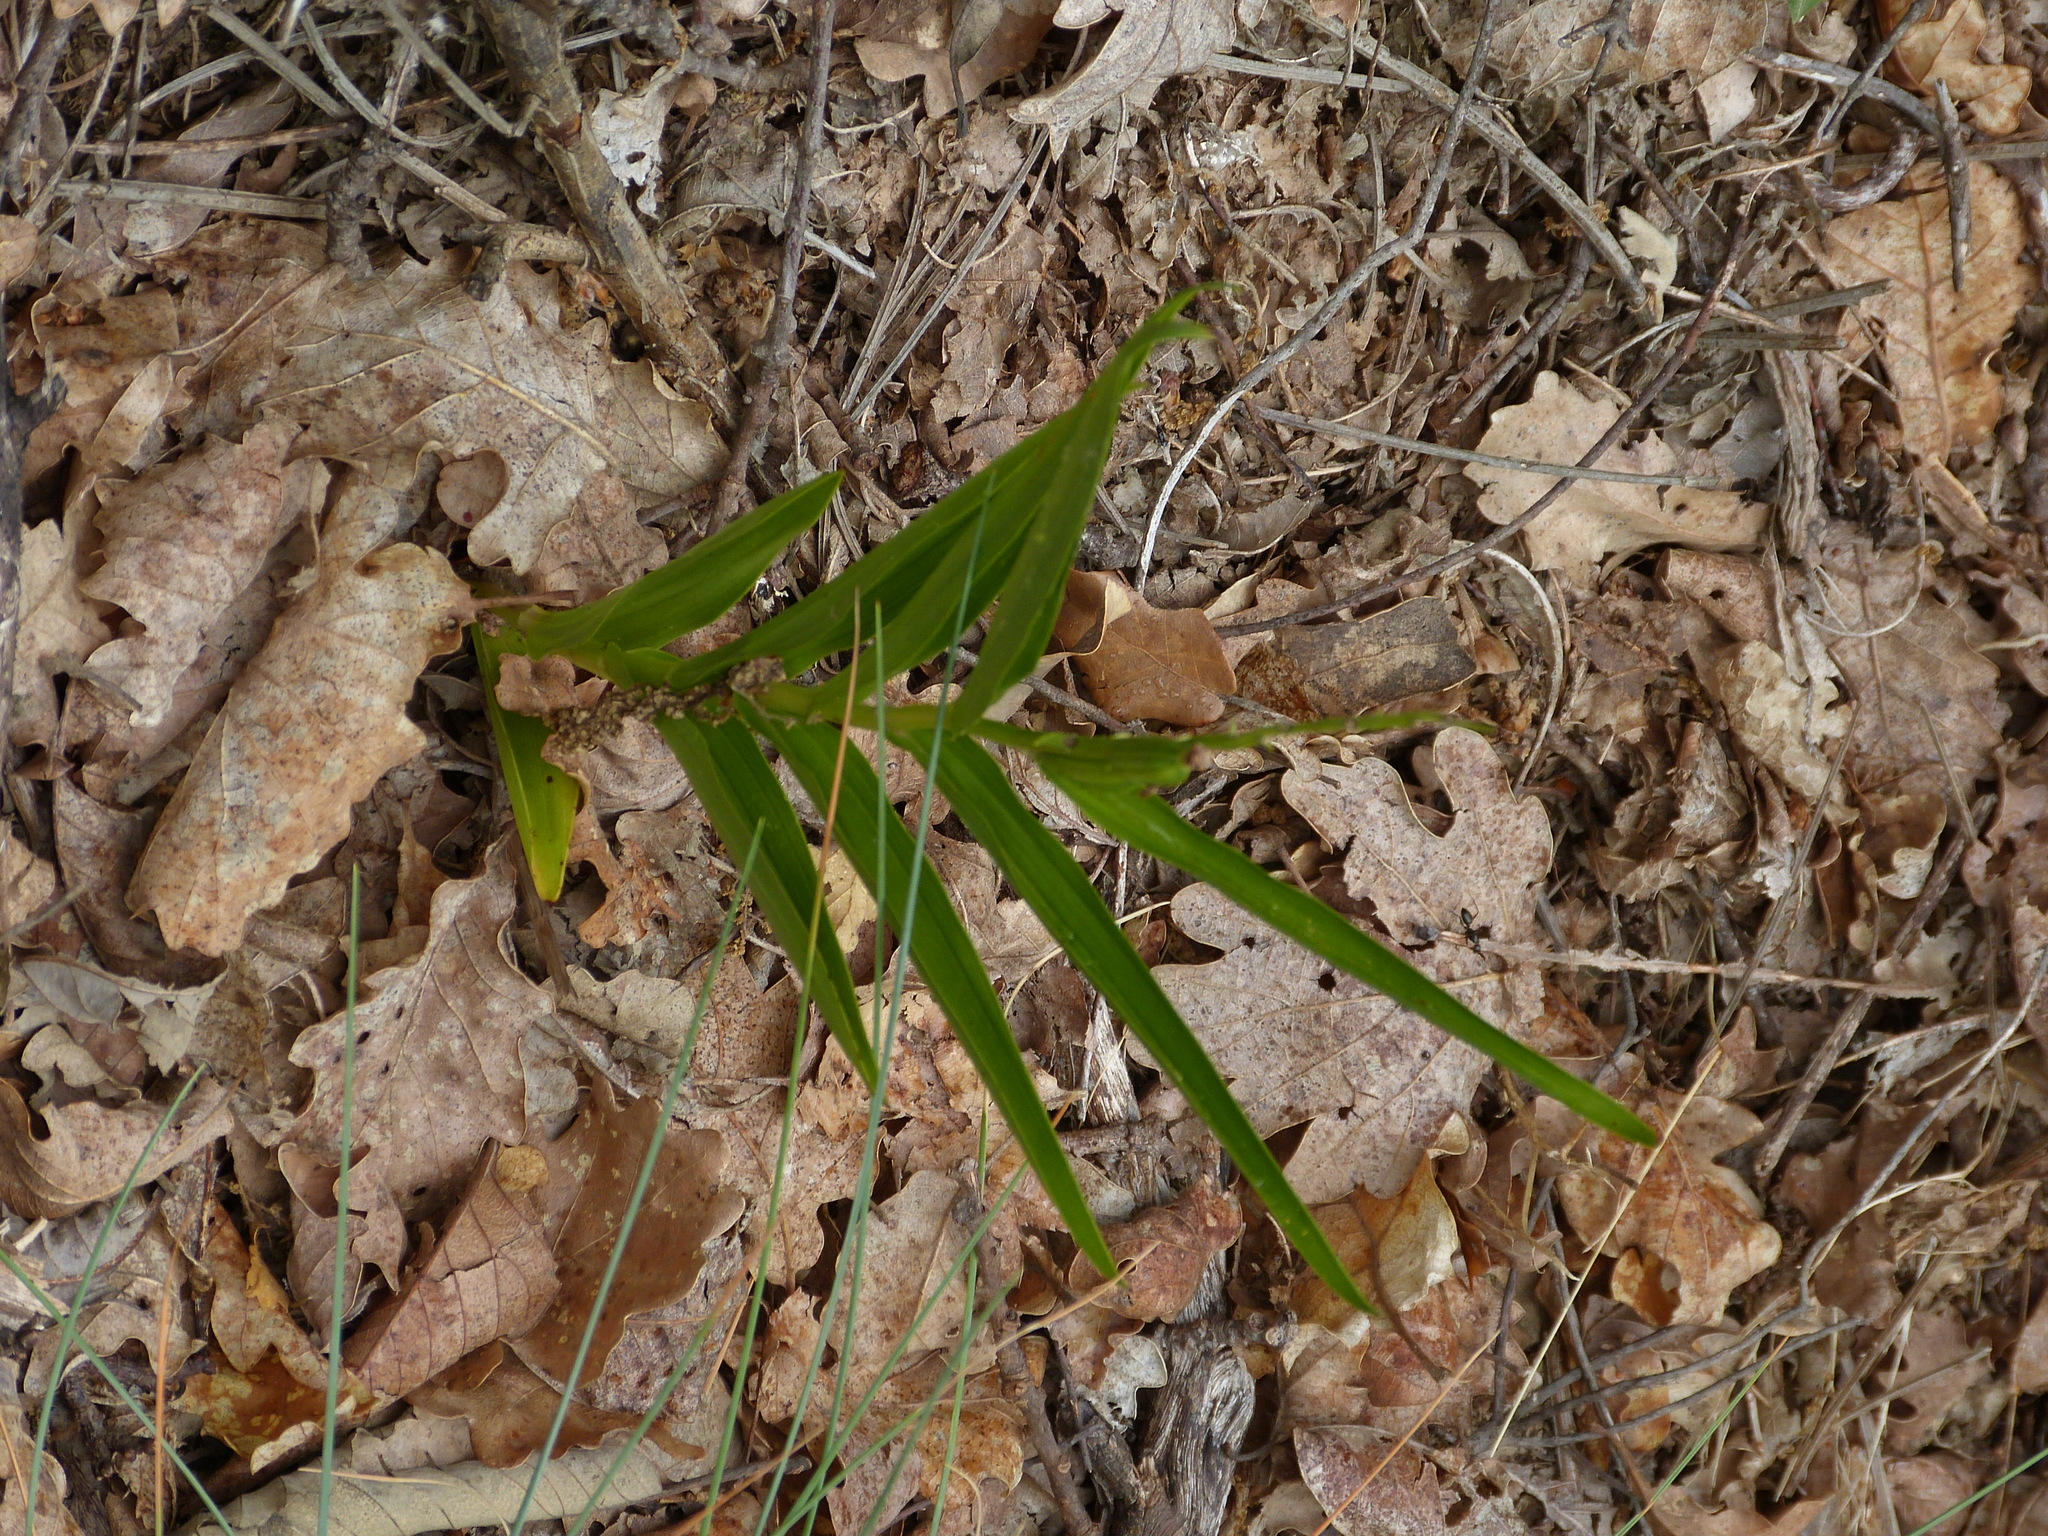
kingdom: Plantae
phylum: Tracheophyta
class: Liliopsida
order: Asparagales
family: Orchidaceae
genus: Cephalanthera
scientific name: Cephalanthera longifolia
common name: Narrow-leaved helleborine
